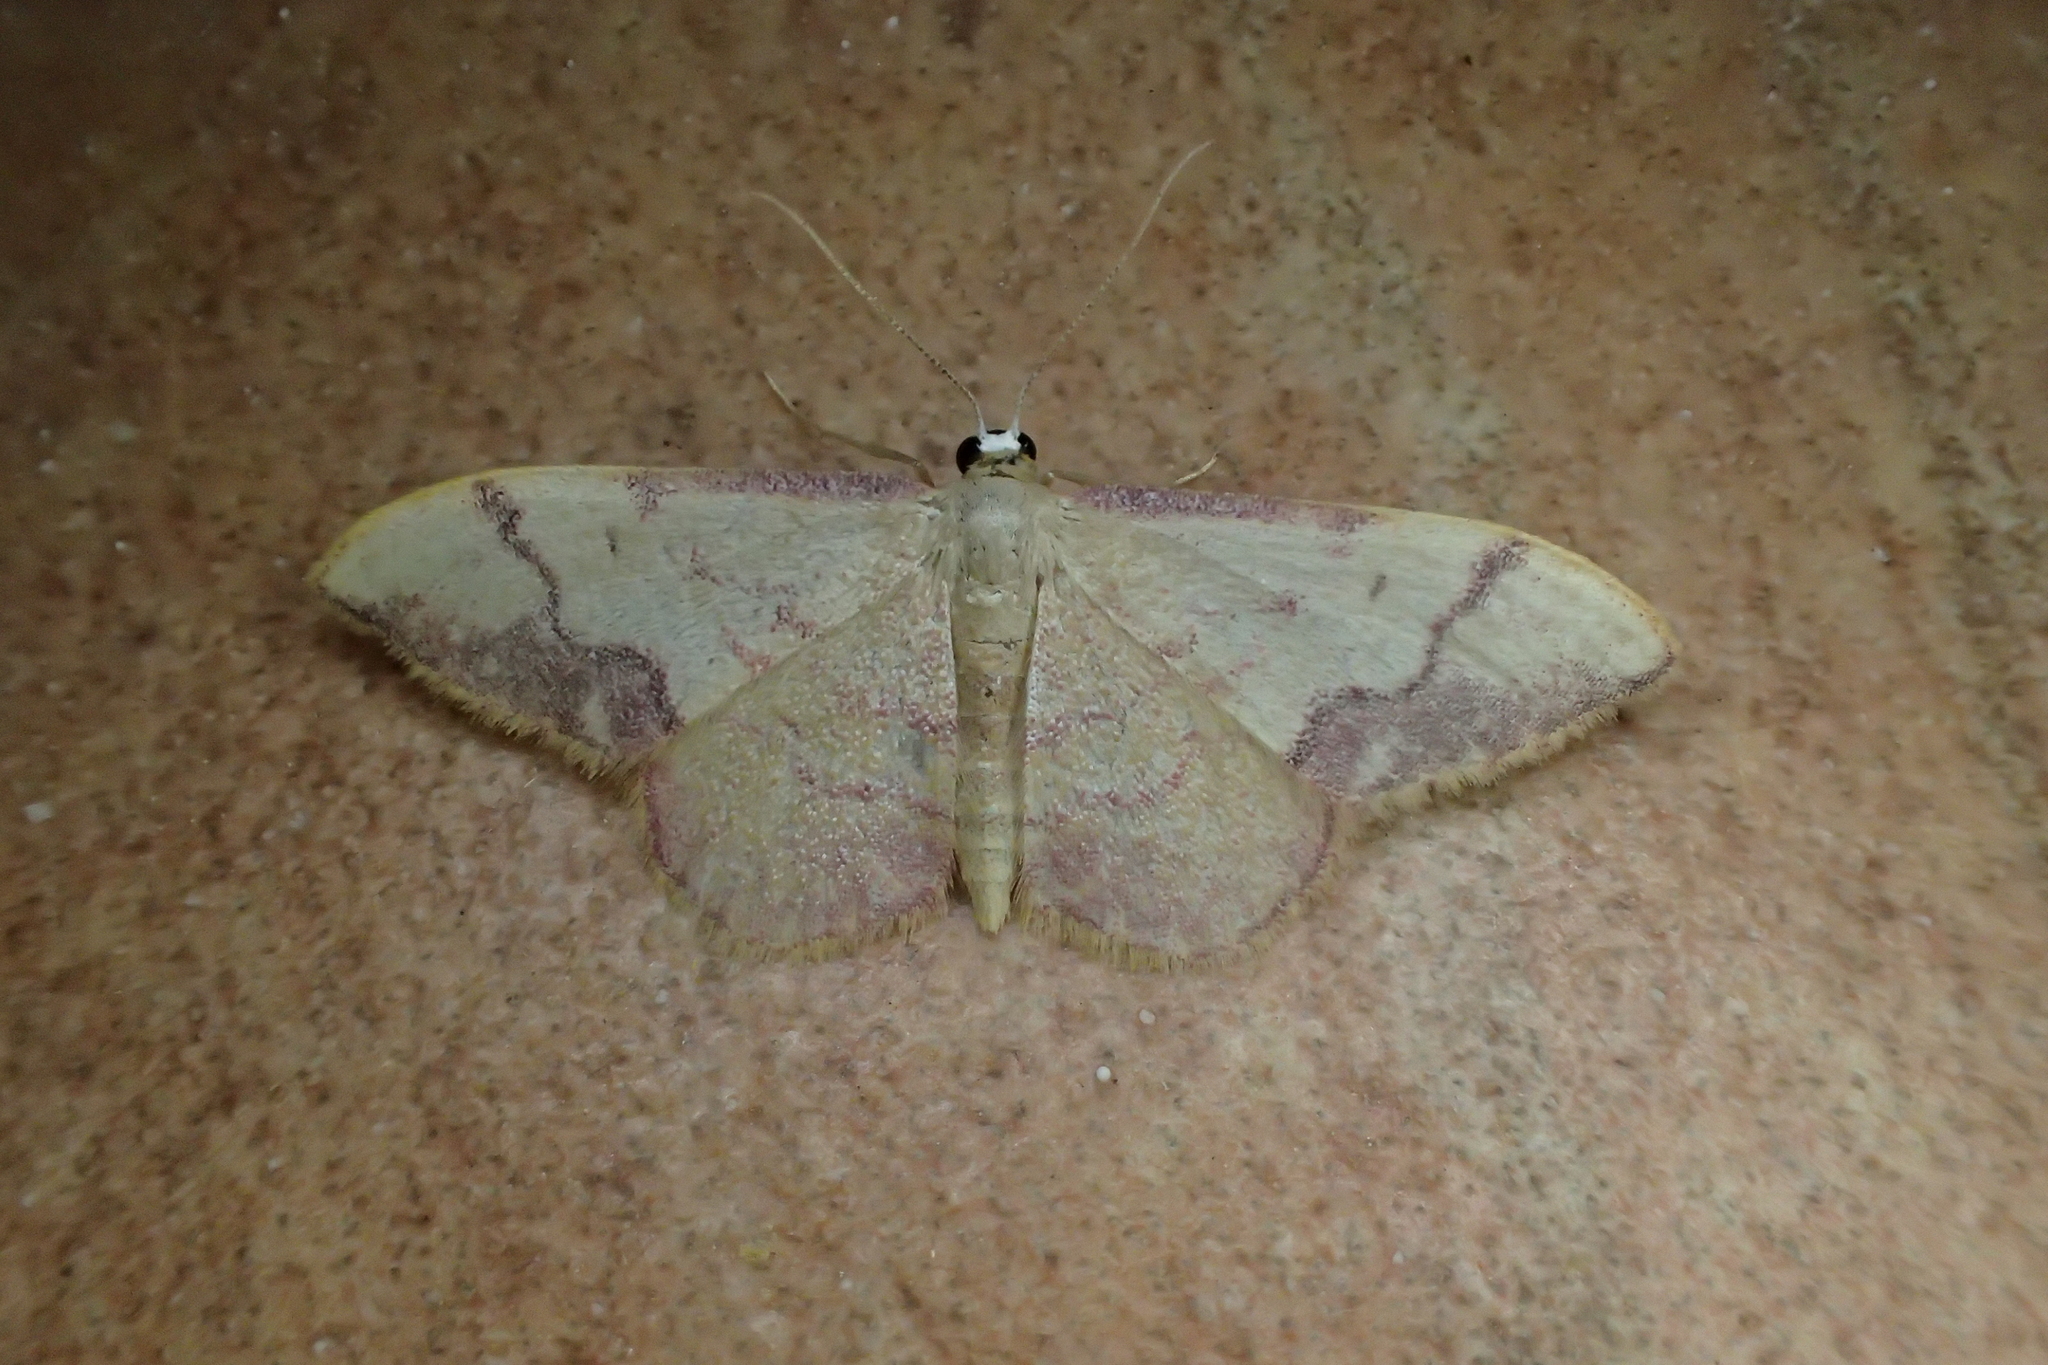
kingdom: Animalia
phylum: Arthropoda
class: Insecta
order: Lepidoptera
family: Geometridae
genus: Idaea
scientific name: Idaea ostrinaria
